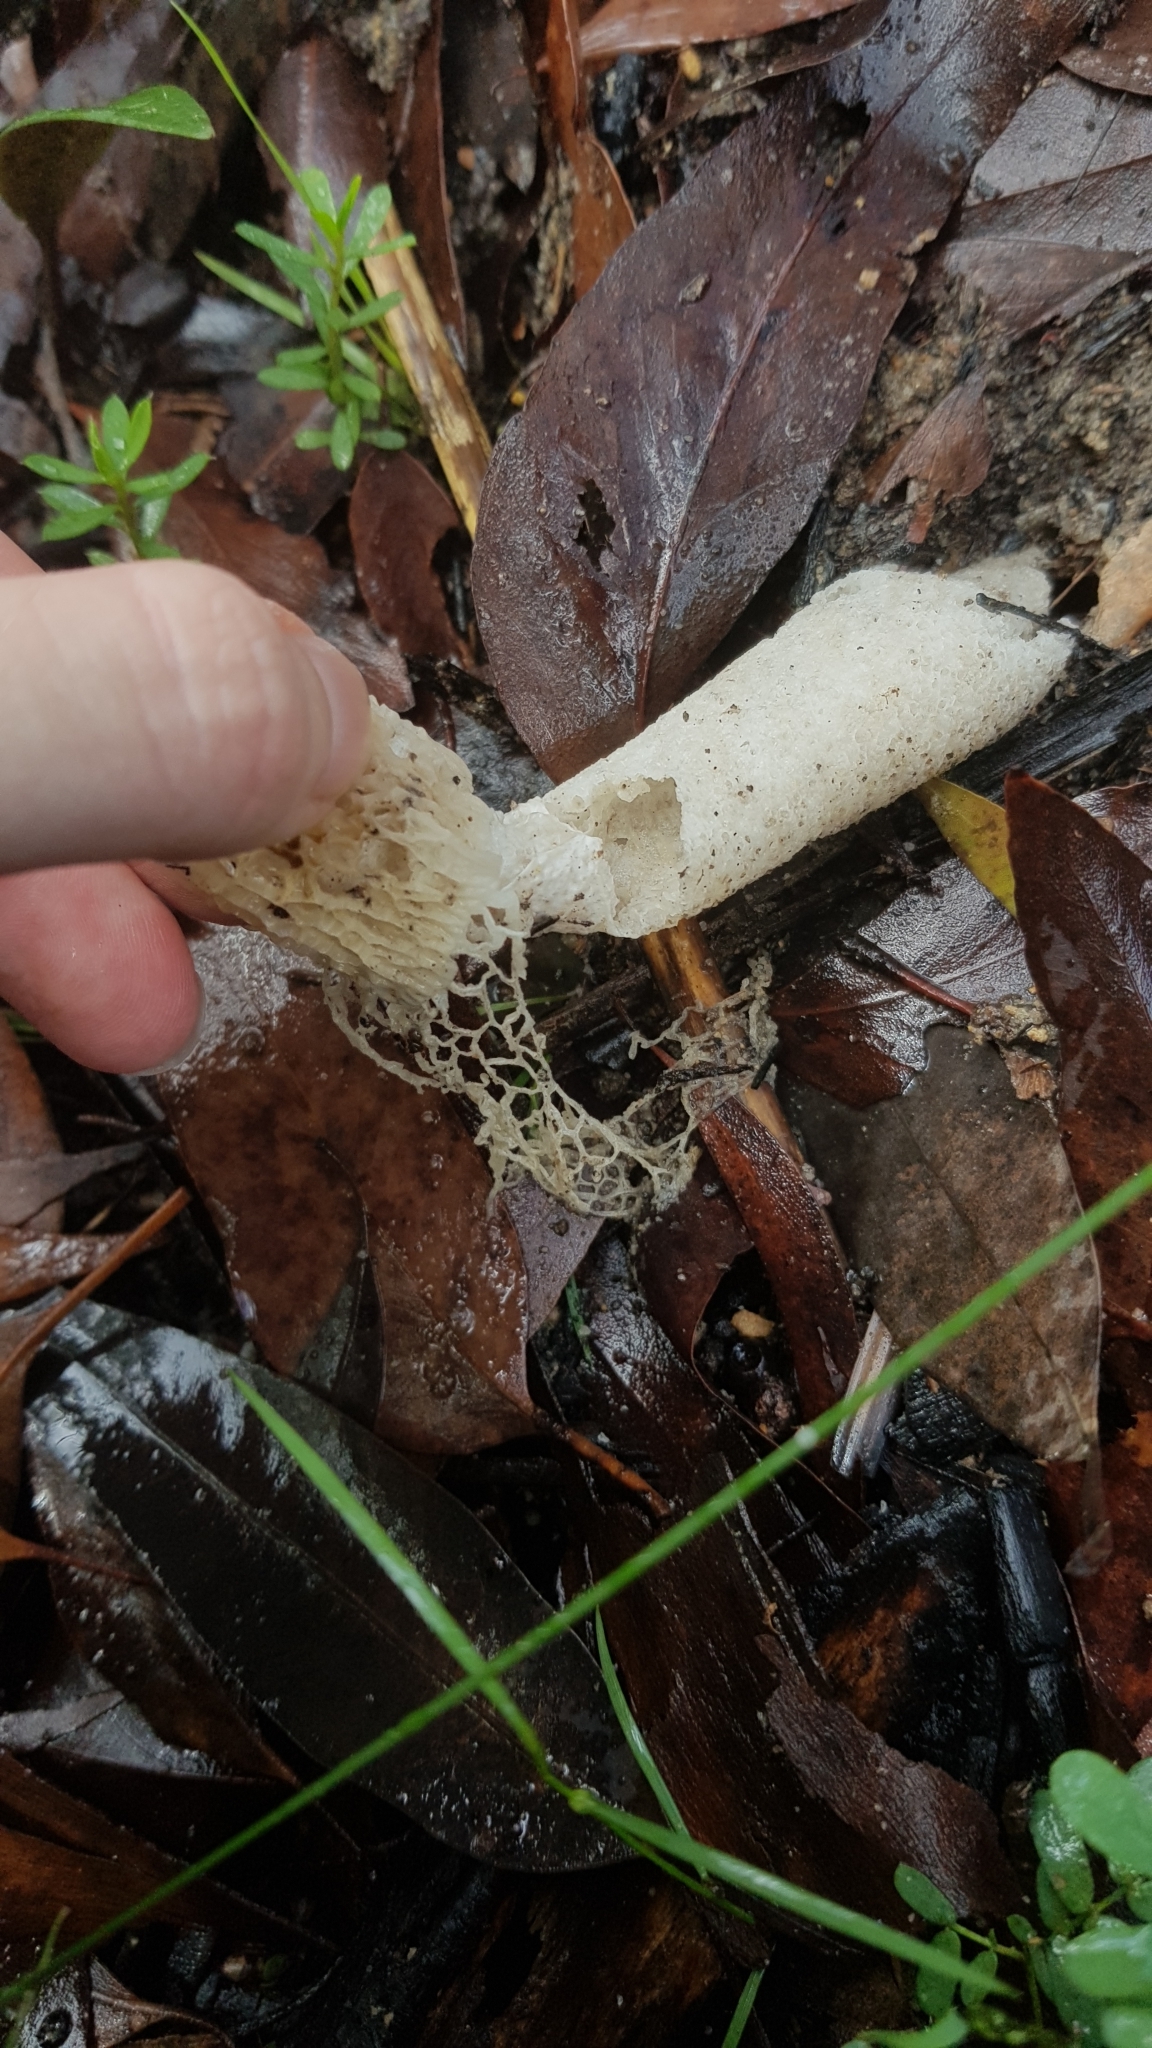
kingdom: Fungi
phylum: Basidiomycota
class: Agaricomycetes
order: Phallales
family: Phallaceae
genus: Phallus
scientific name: Phallus indusiatus
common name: Bridal veil stinkhorn
